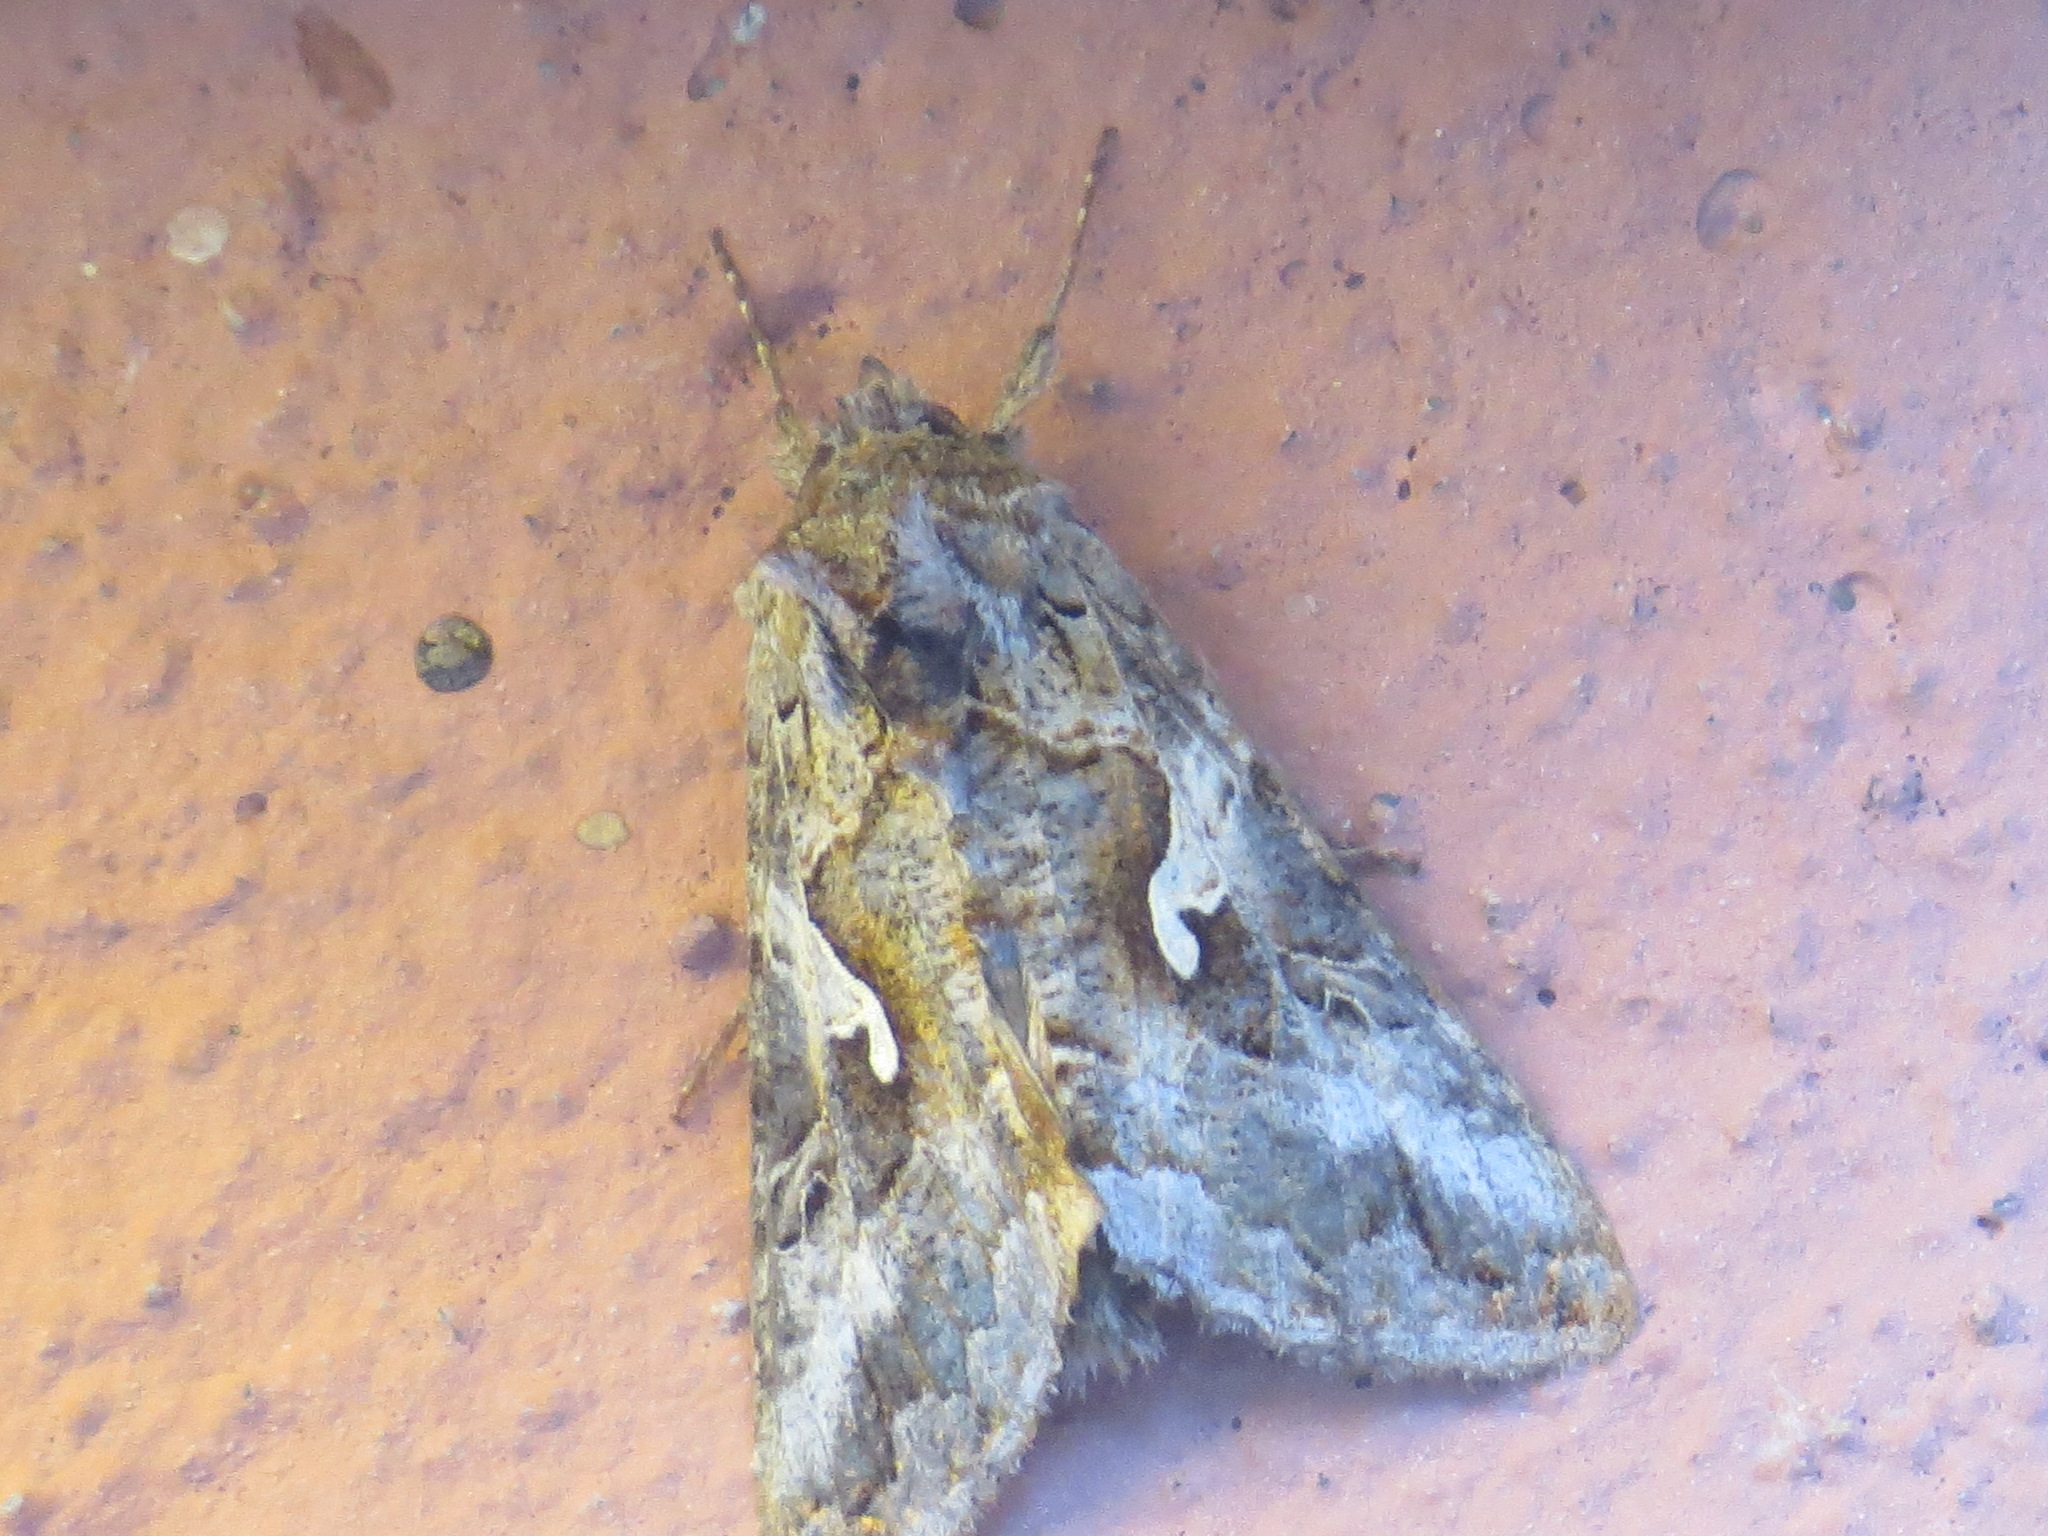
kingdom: Animalia
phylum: Arthropoda
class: Insecta
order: Lepidoptera
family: Noctuidae
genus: Autographa
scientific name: Autographa californica
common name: Alfalfa looper
